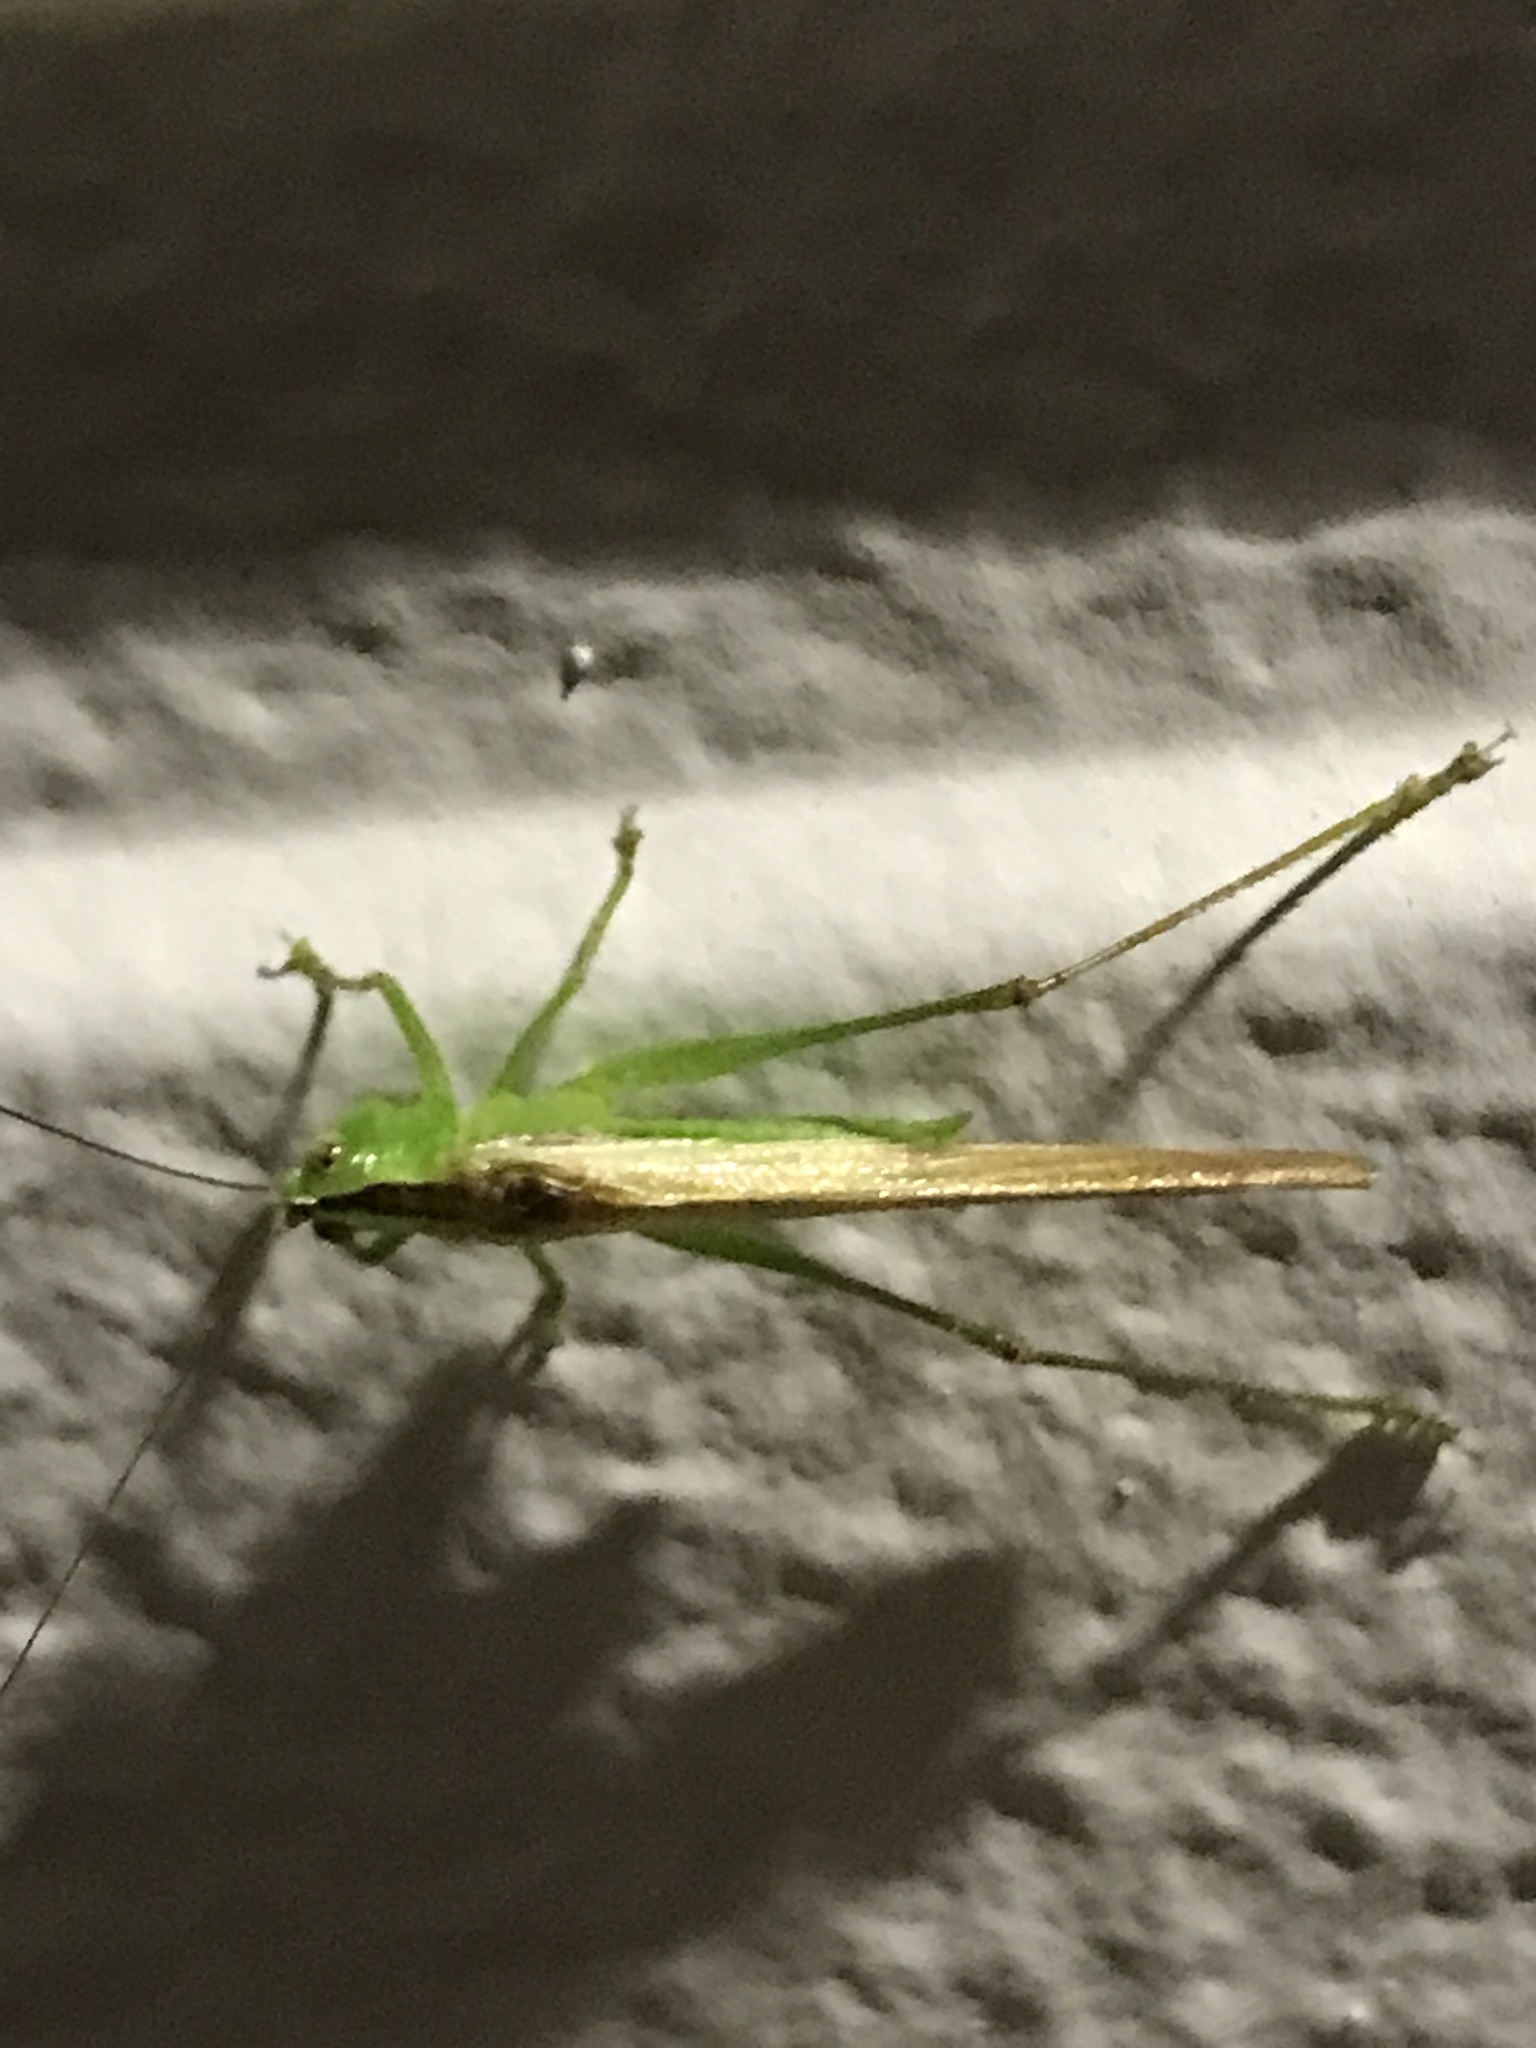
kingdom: Animalia
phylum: Arthropoda
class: Insecta
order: Orthoptera
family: Tettigoniidae
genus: Conocephalus
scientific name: Conocephalus fasciatus
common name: Slender meadow katydid
